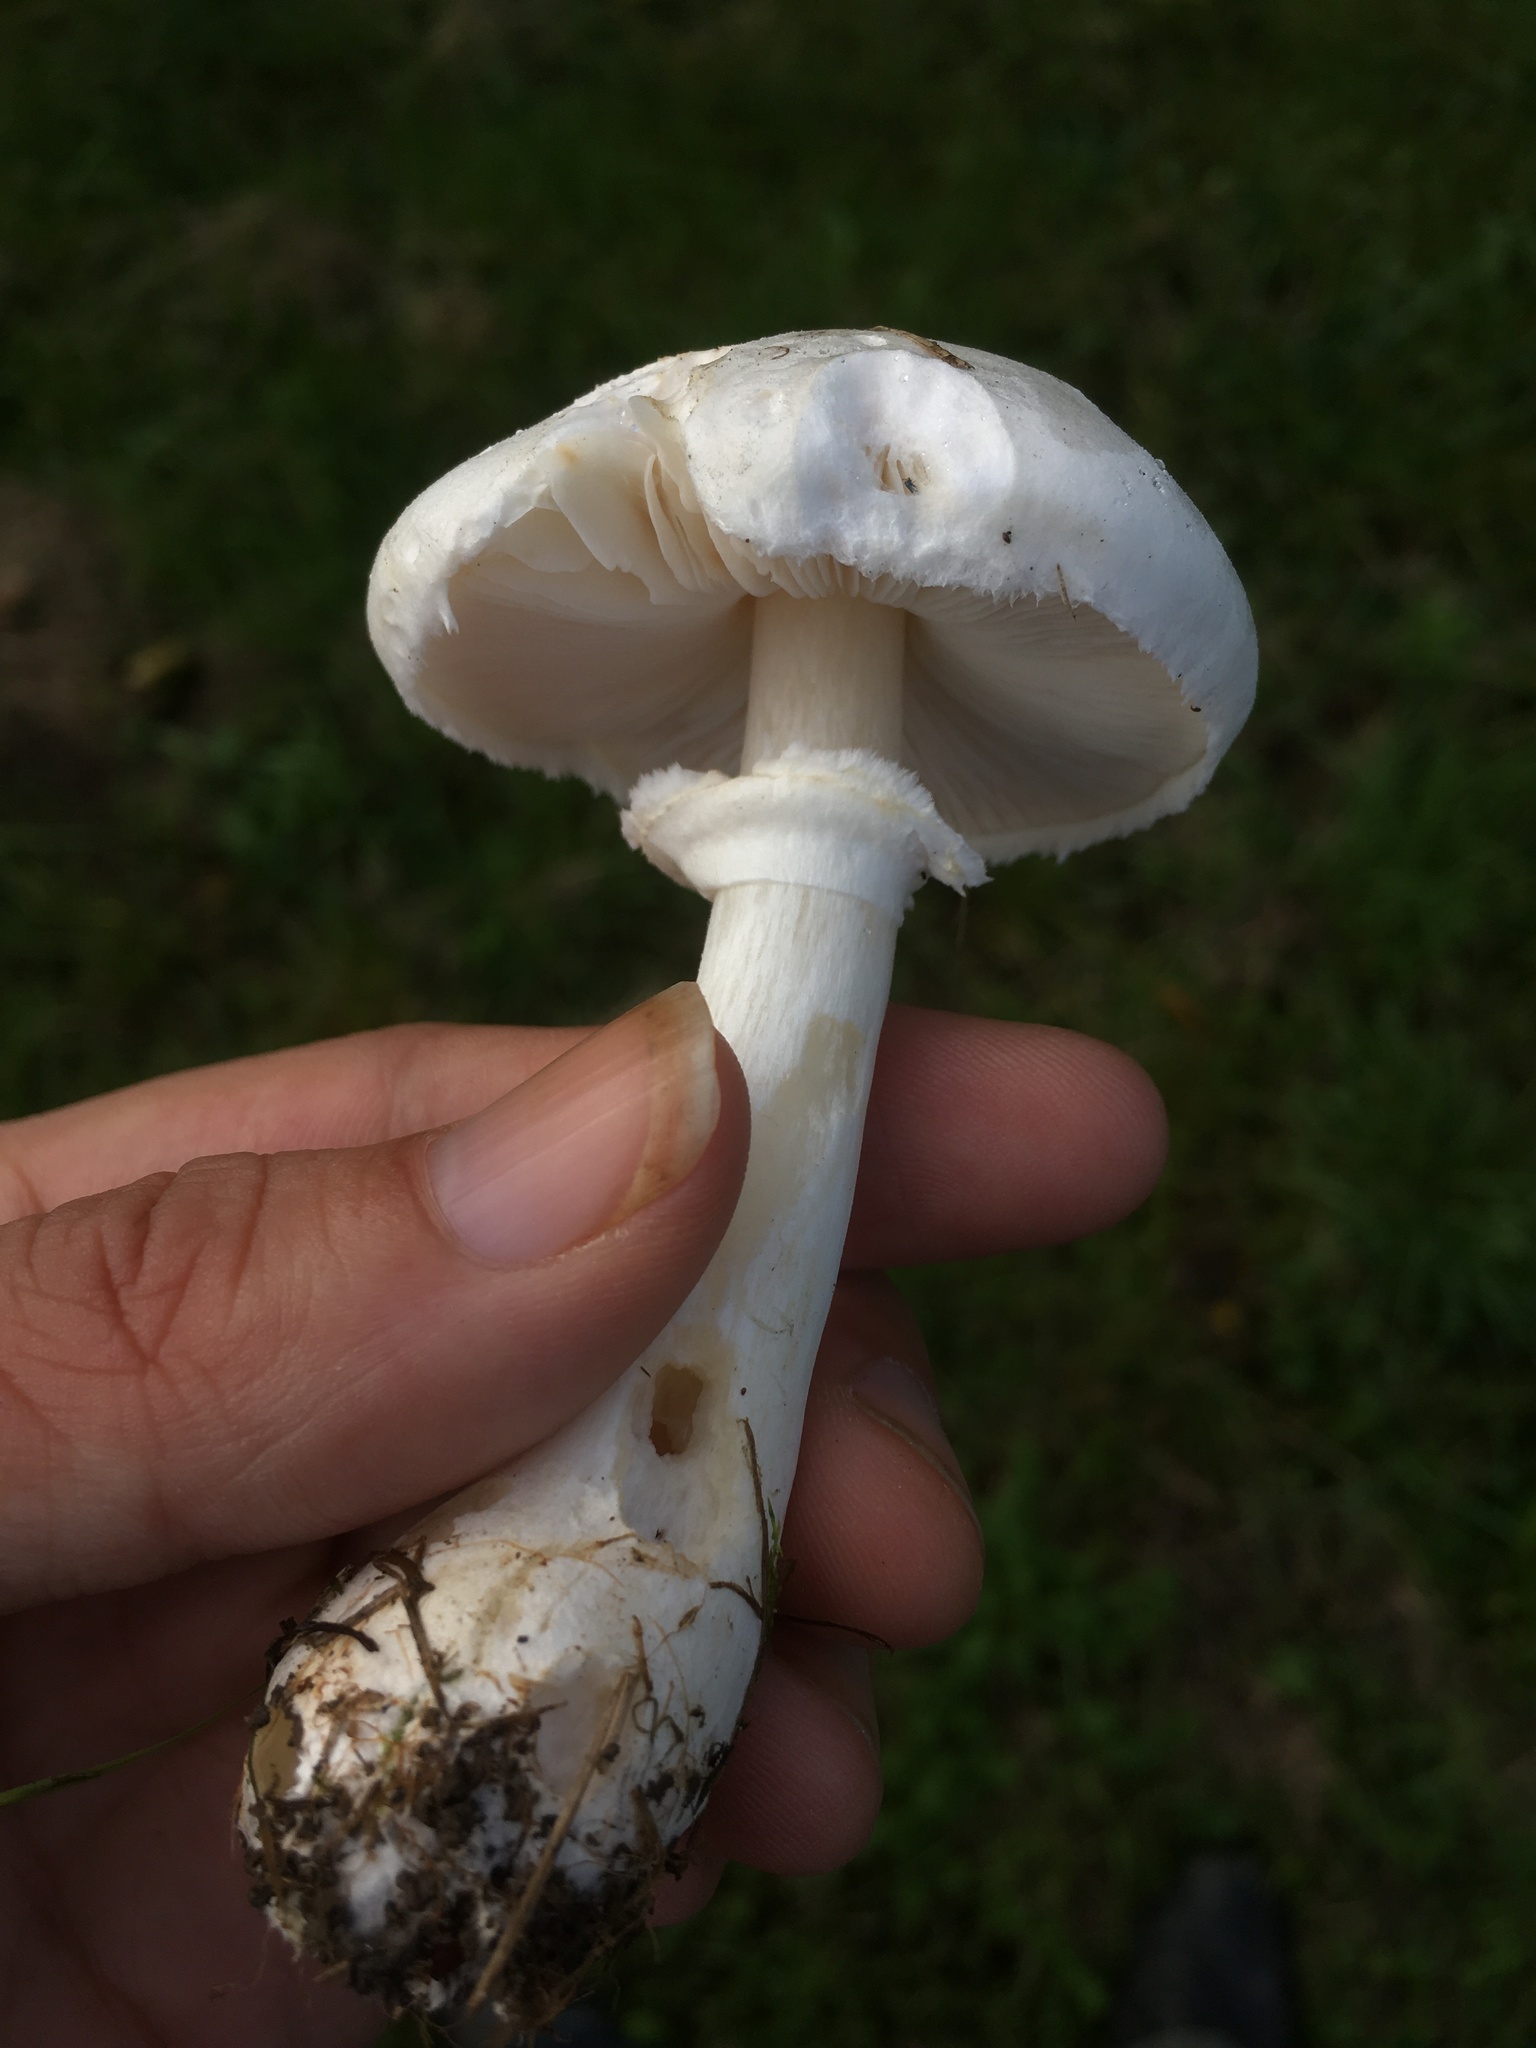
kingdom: Fungi
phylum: Basidiomycota
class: Agaricomycetes
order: Agaricales
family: Agaricaceae
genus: Leucoagaricus
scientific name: Leucoagaricus leucothites
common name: White dapperling
